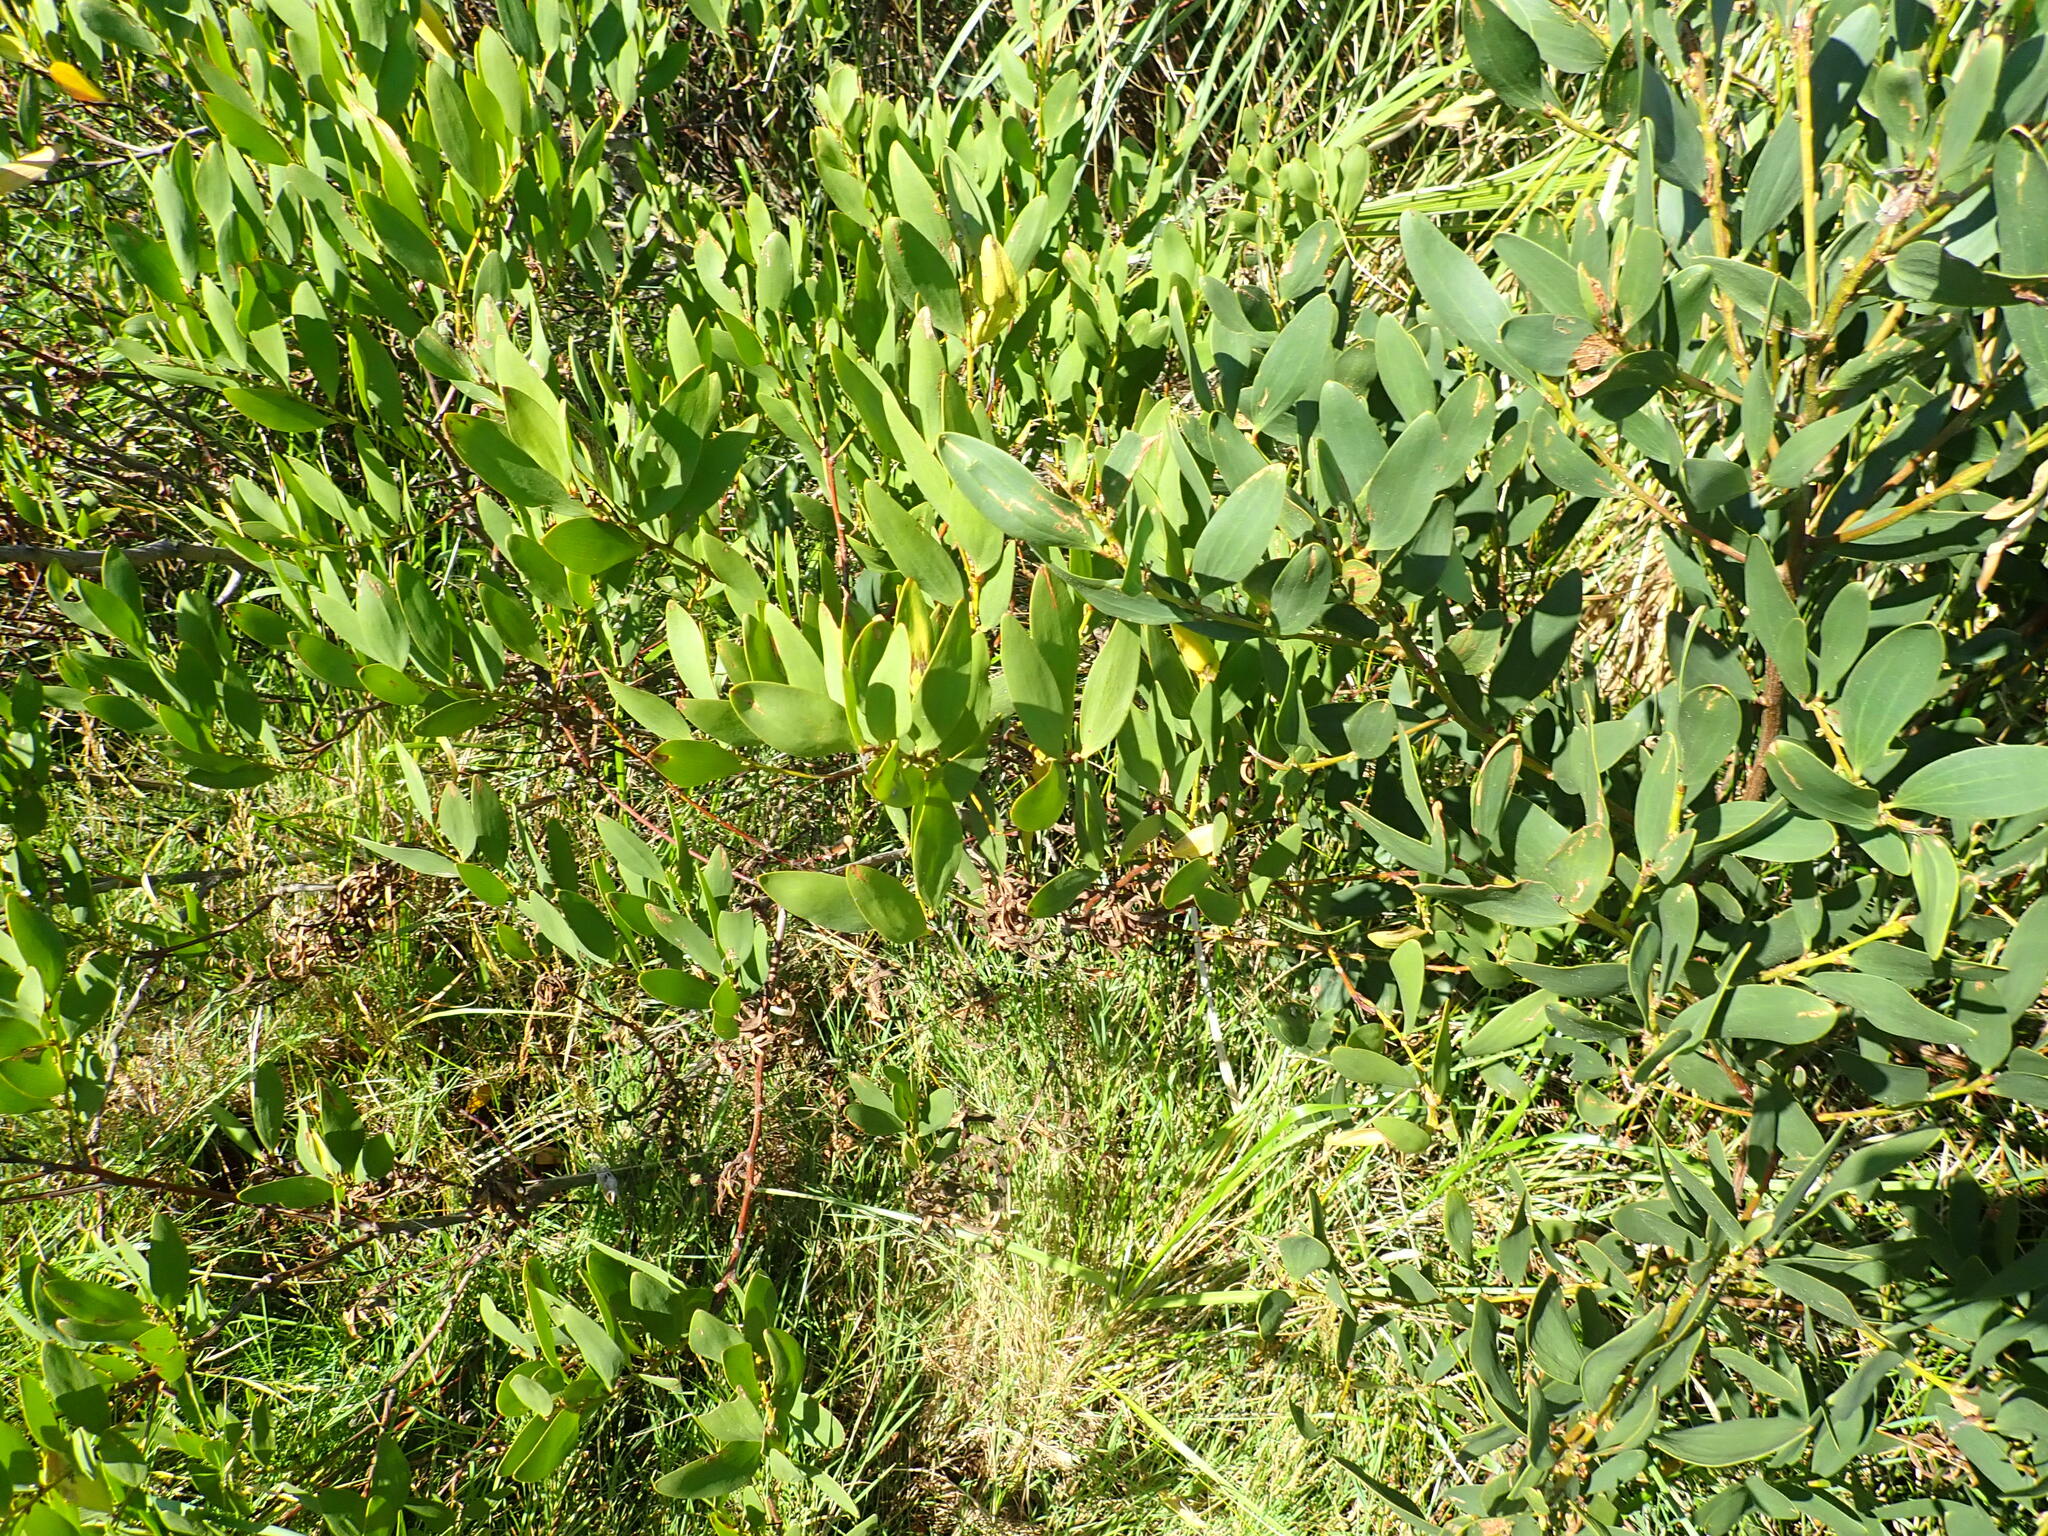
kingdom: Plantae
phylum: Tracheophyta
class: Magnoliopsida
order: Fabales
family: Fabaceae
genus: Acacia
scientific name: Acacia longifolia
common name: Sydney golden wattle
